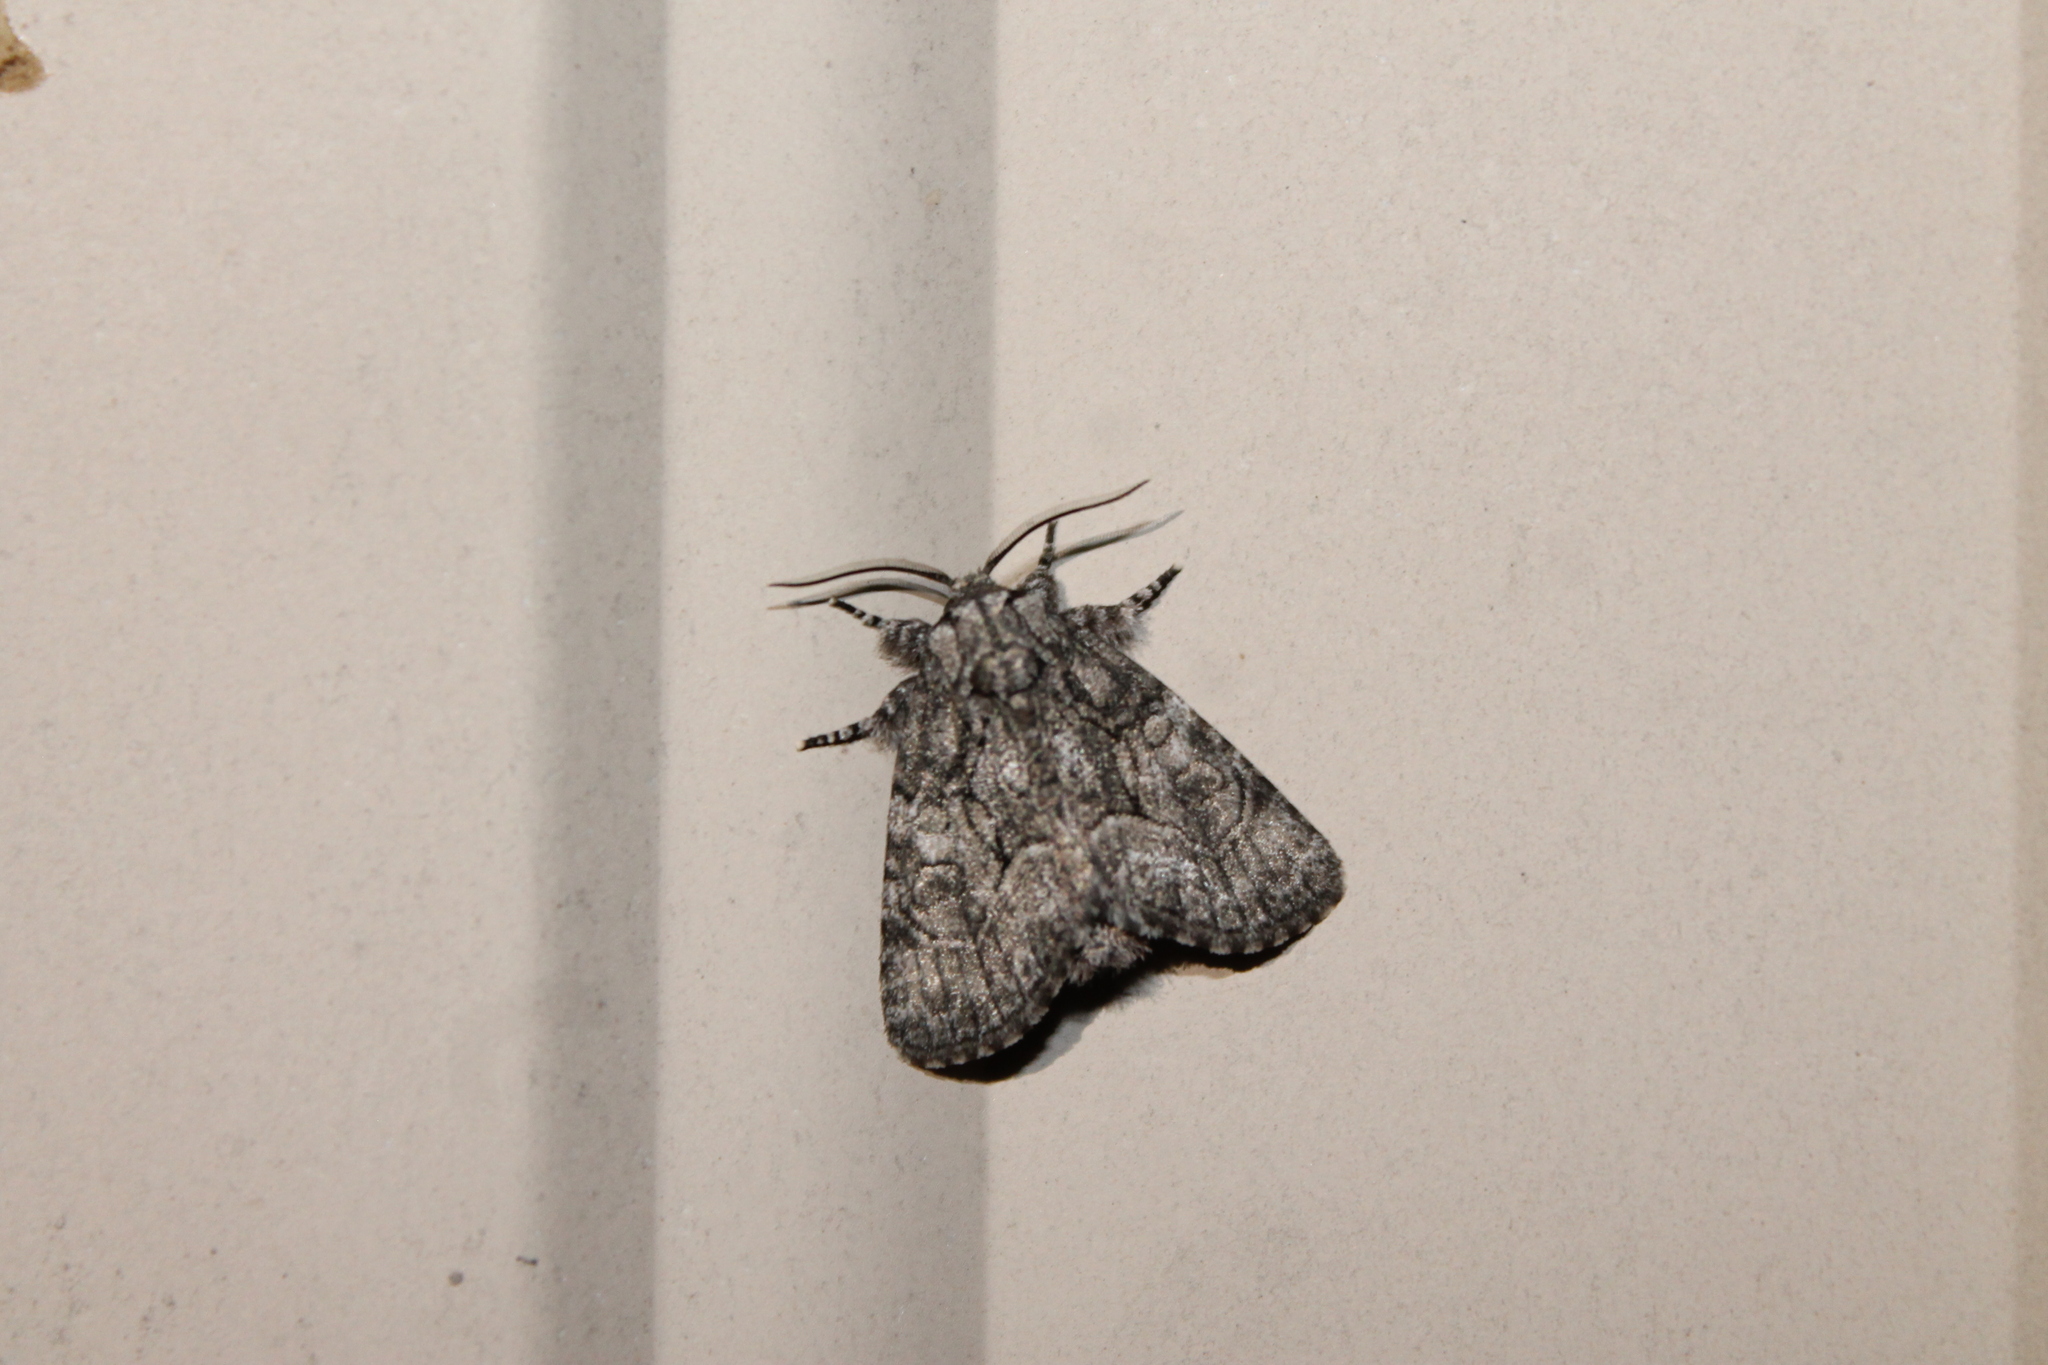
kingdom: Animalia
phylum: Arthropoda
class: Insecta
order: Lepidoptera
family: Noctuidae
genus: Raphia
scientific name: Raphia frater
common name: Brother
